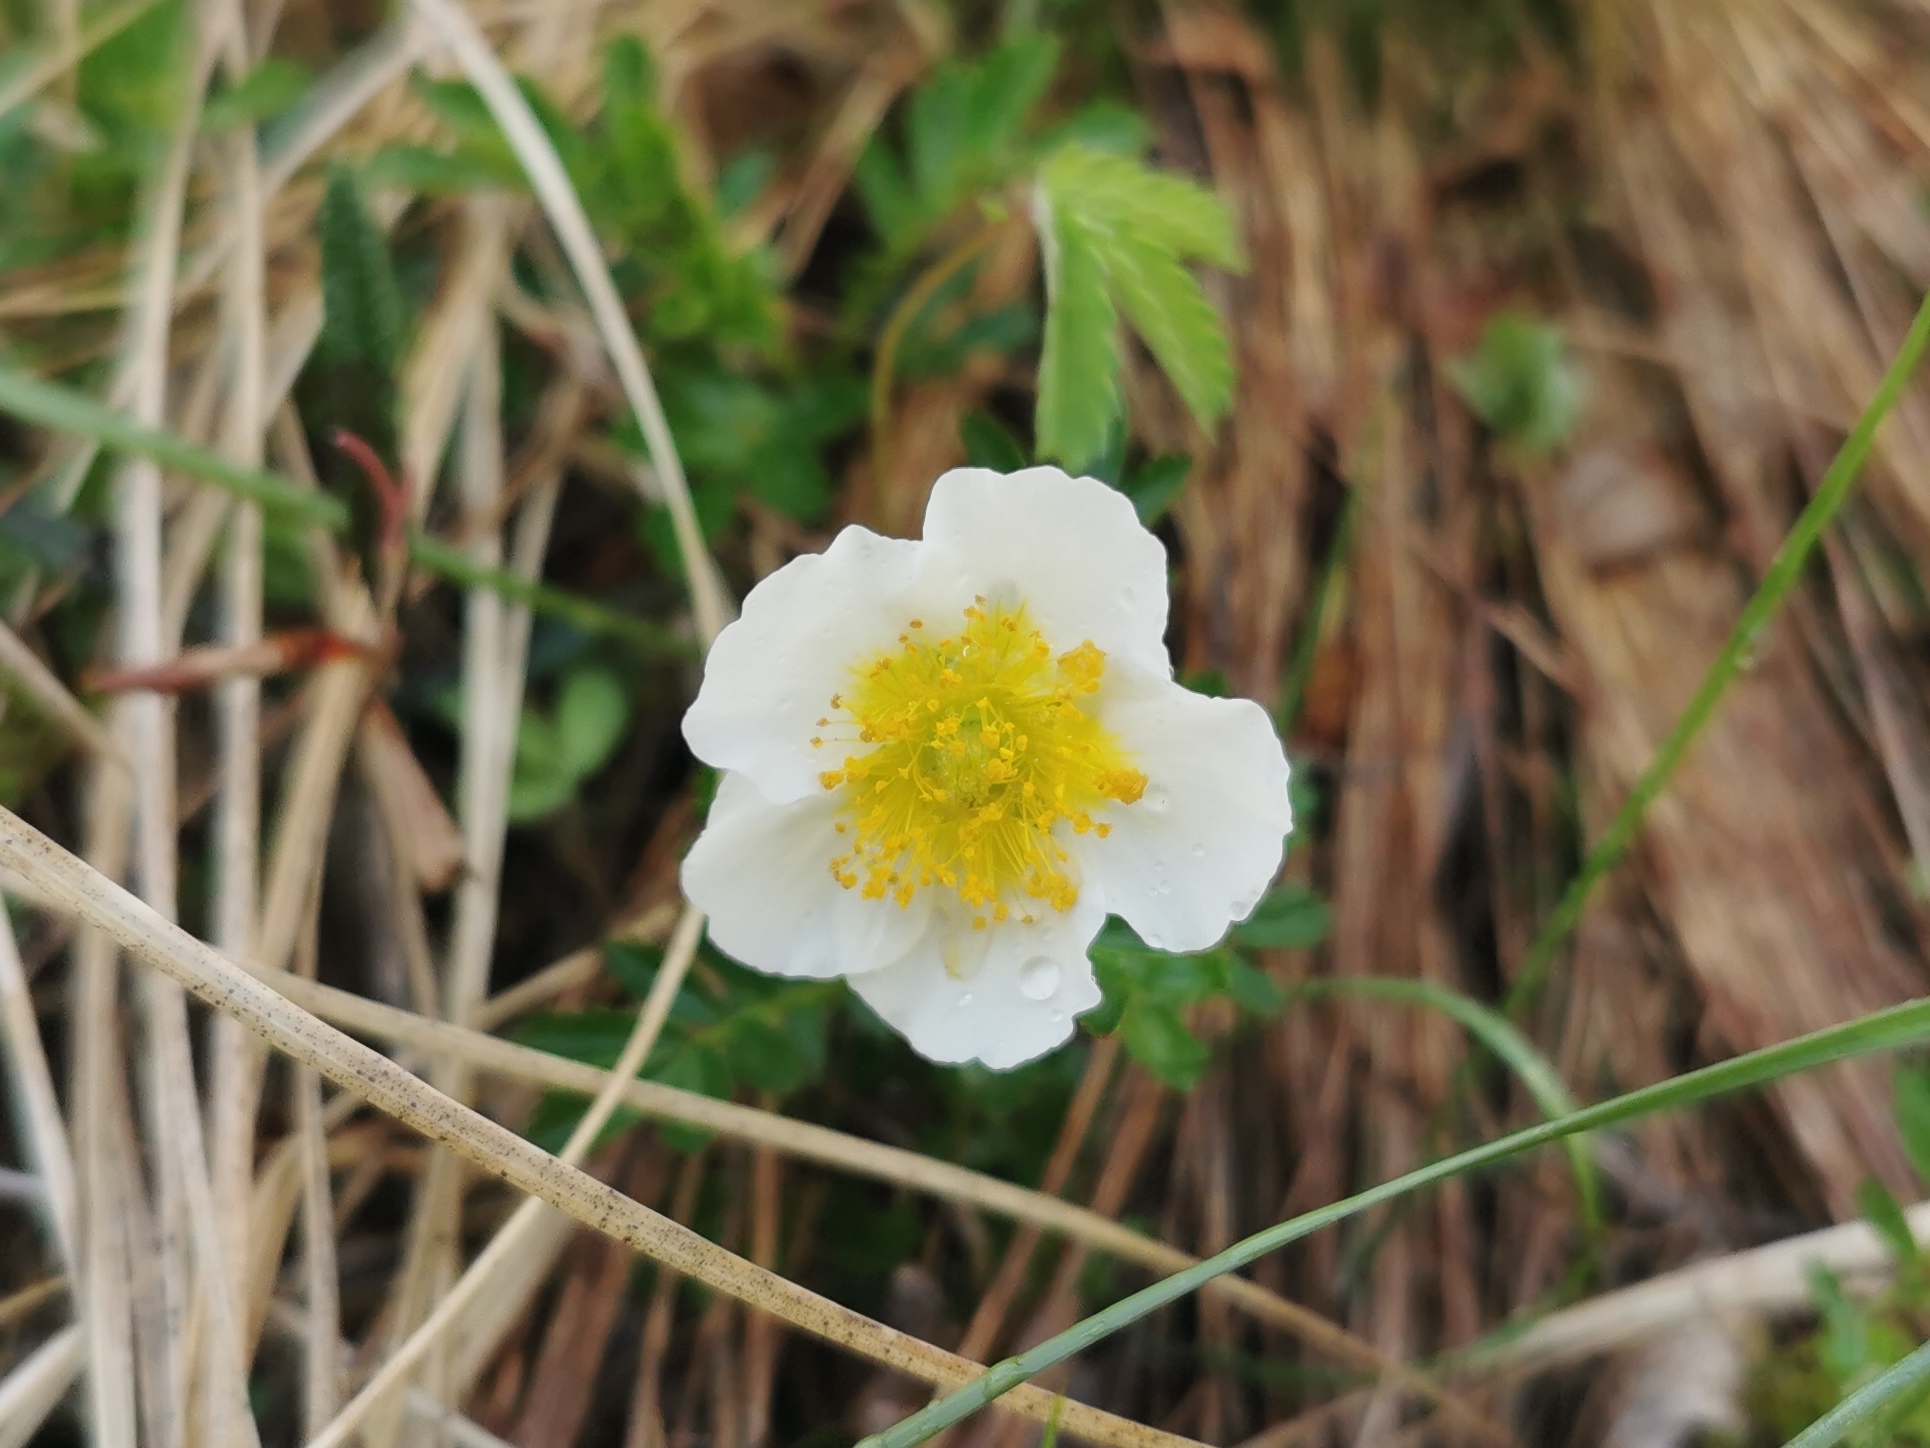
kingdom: Plantae
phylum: Tracheophyta
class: Magnoliopsida
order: Rosales
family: Rosaceae
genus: Geum
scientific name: Geum pentapetalum
